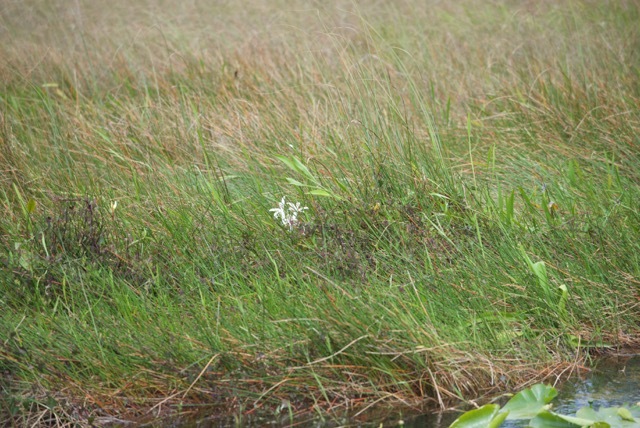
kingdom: Plantae
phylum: Tracheophyta
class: Liliopsida
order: Asparagales
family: Amaryllidaceae
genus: Crinum
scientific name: Crinum americanum
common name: Florida swamp-lily
